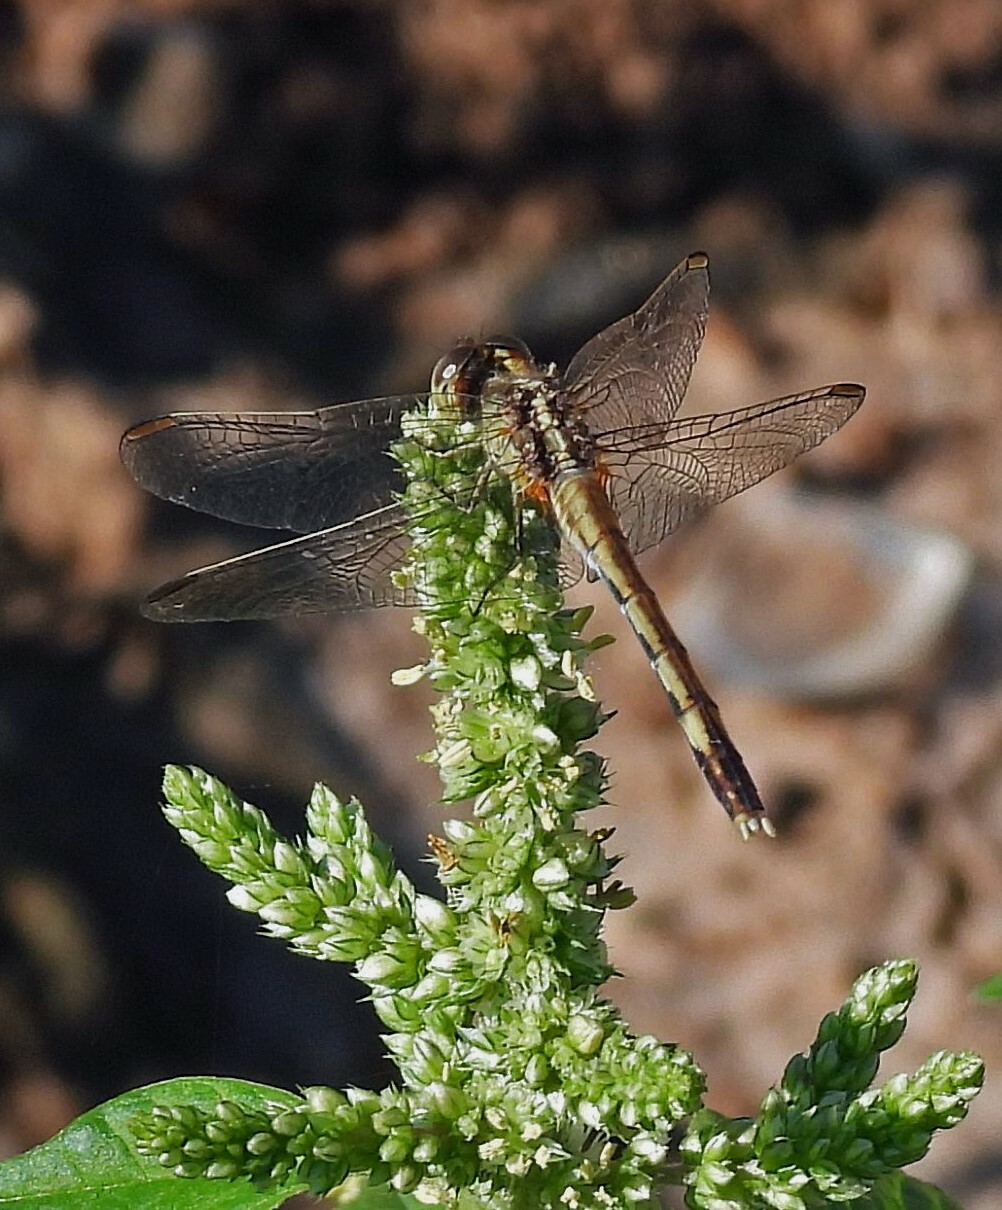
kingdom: Animalia
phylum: Arthropoda
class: Insecta
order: Odonata
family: Libellulidae
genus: Erythrodiplax
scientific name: Erythrodiplax nigricans
